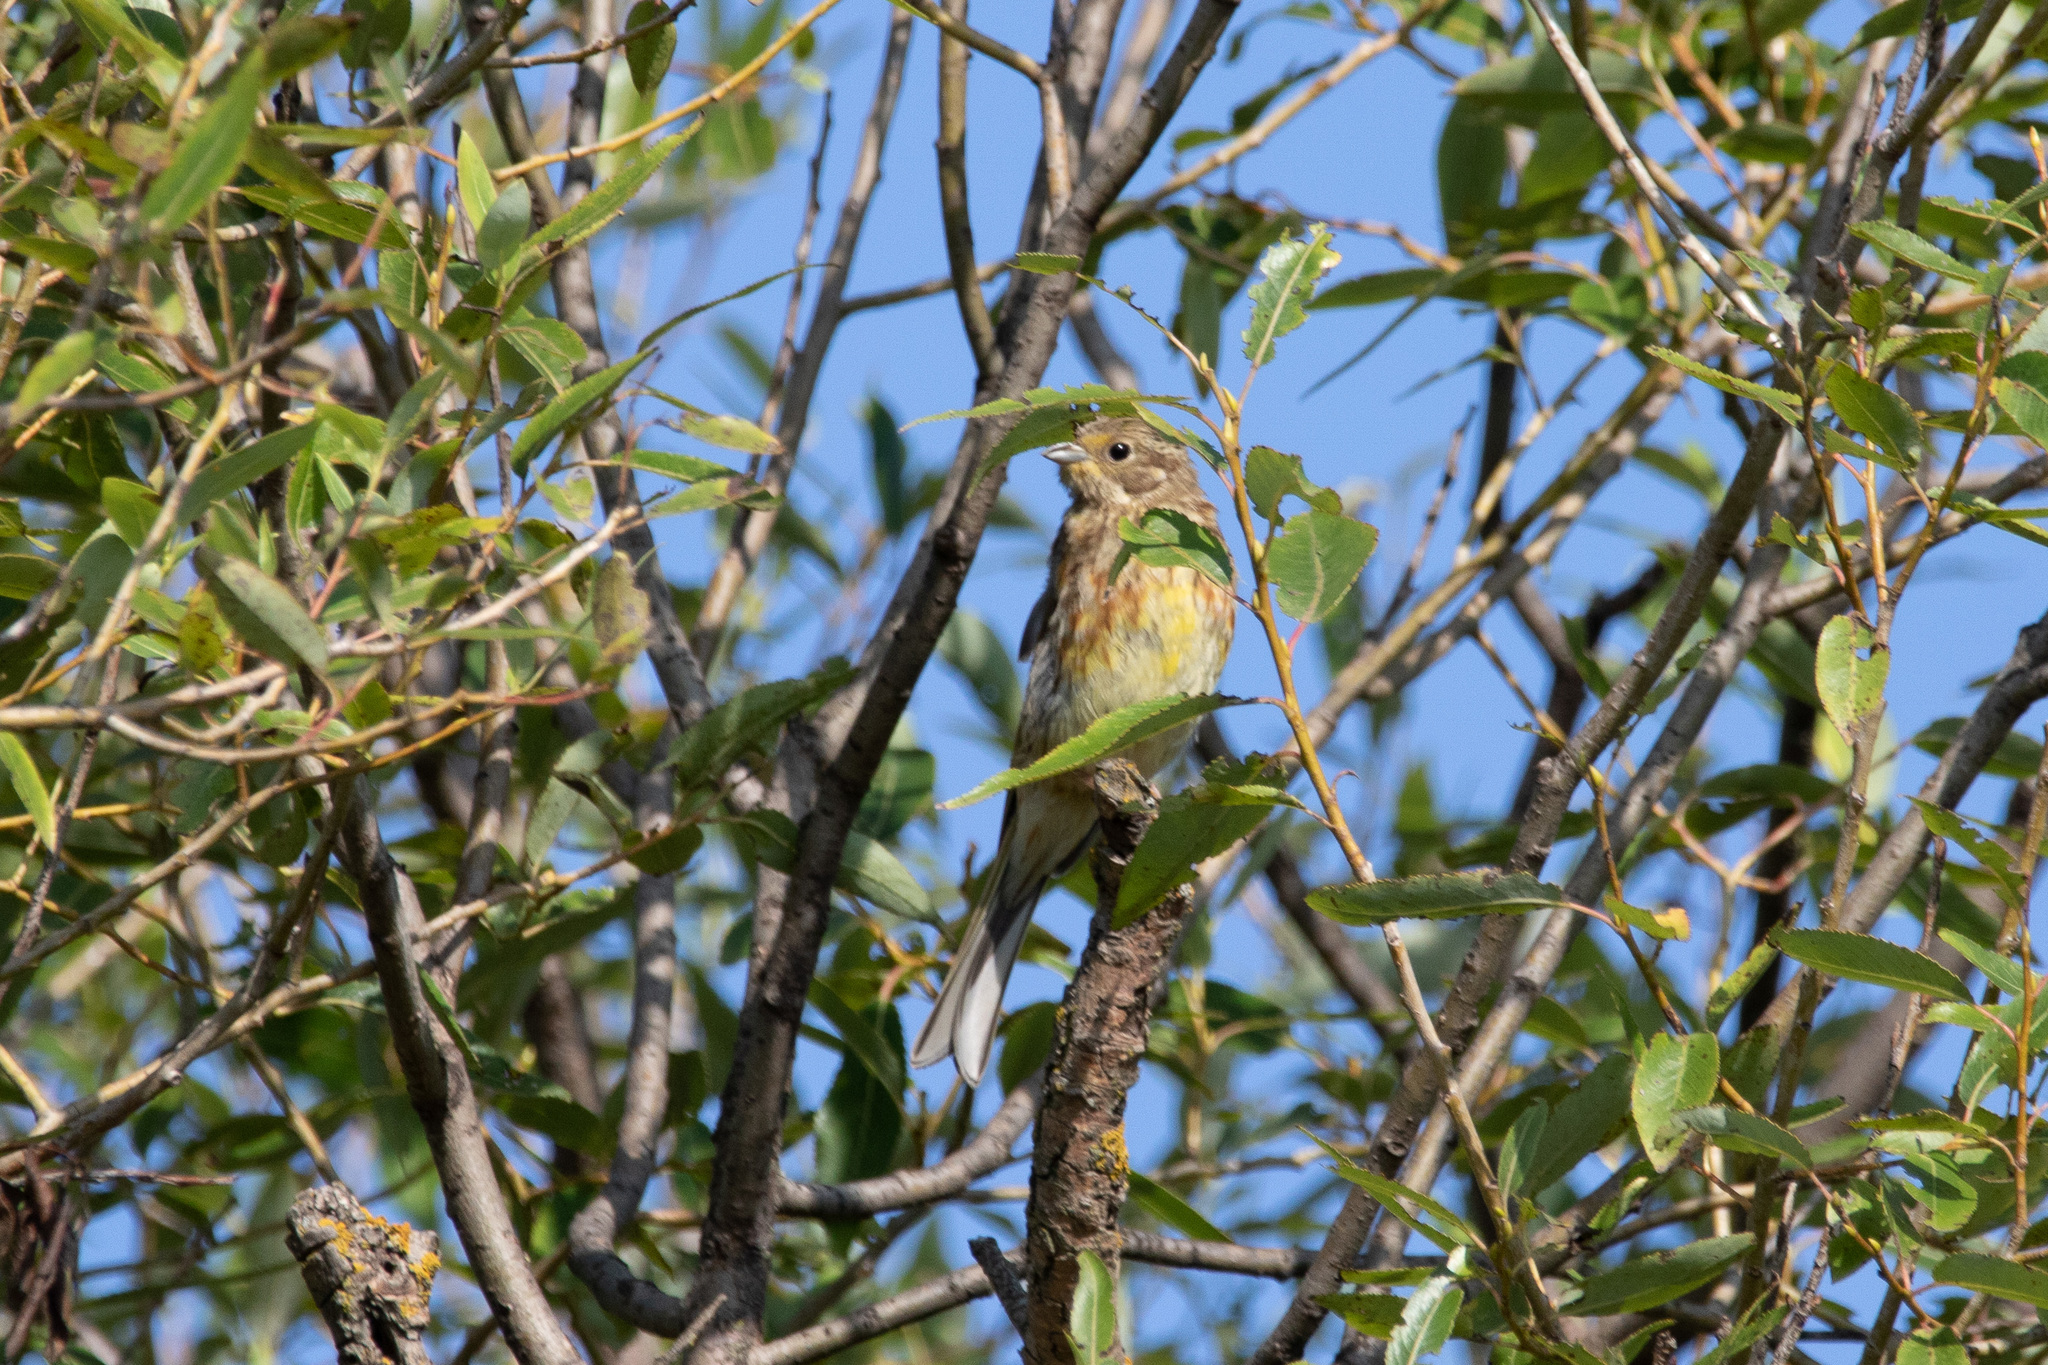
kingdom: Animalia
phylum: Chordata
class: Aves
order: Passeriformes
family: Emberizidae
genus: Emberiza
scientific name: Emberiza citrinella
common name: Yellowhammer
